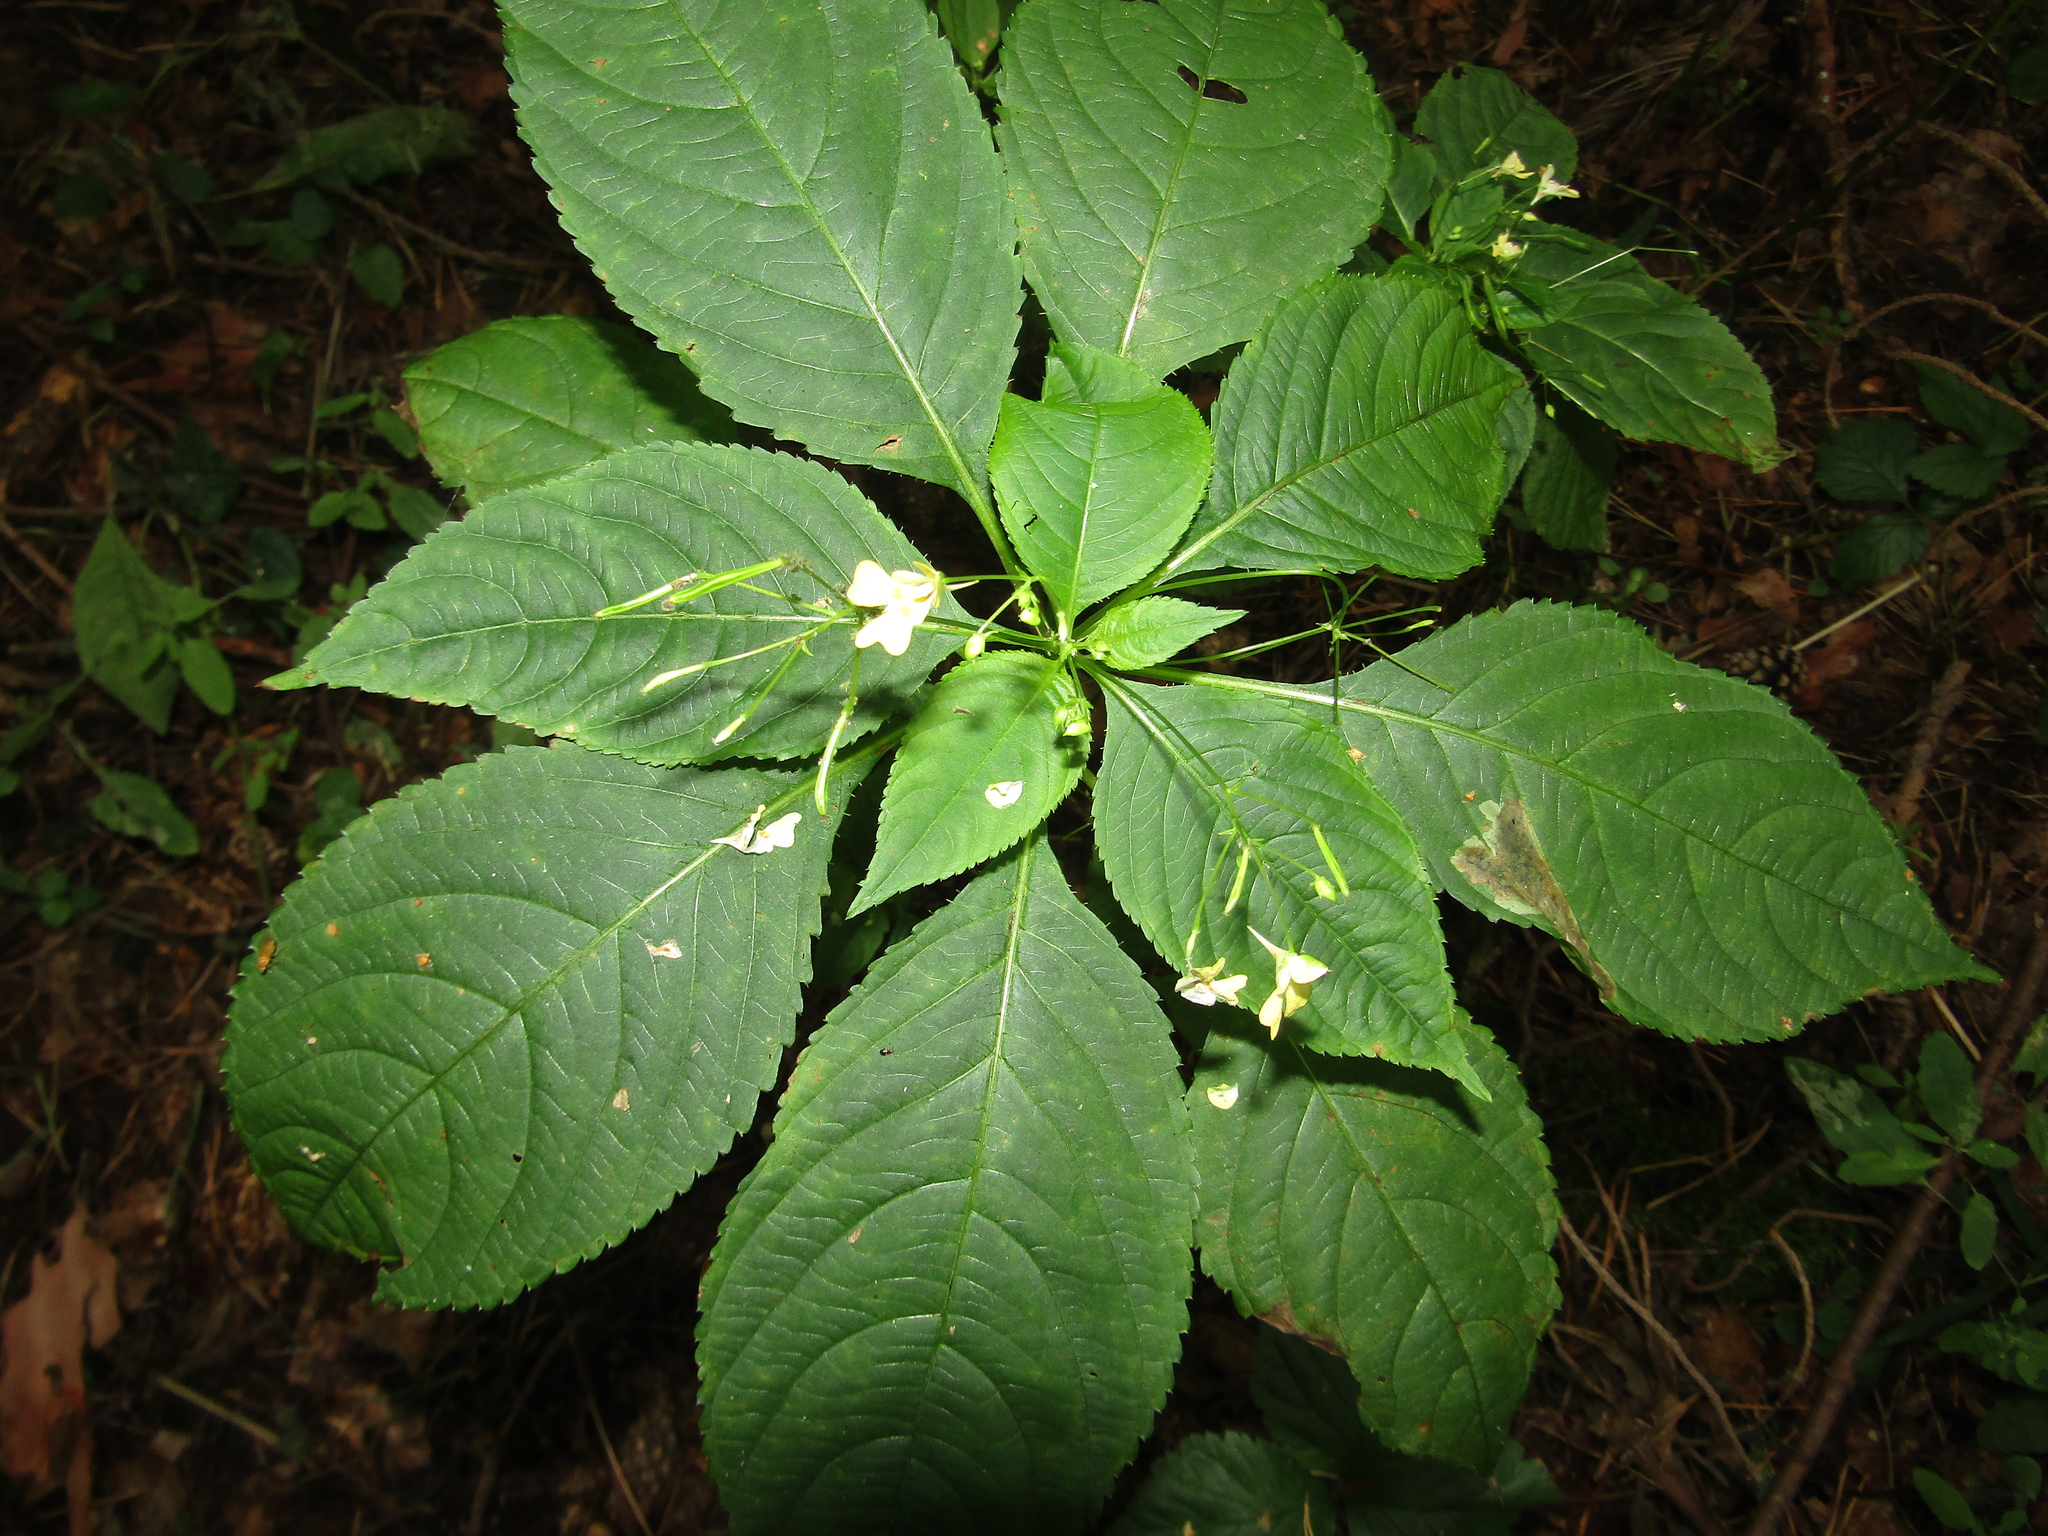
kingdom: Plantae
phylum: Tracheophyta
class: Magnoliopsida
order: Ericales
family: Balsaminaceae
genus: Impatiens
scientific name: Impatiens parviflora
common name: Small balsam
